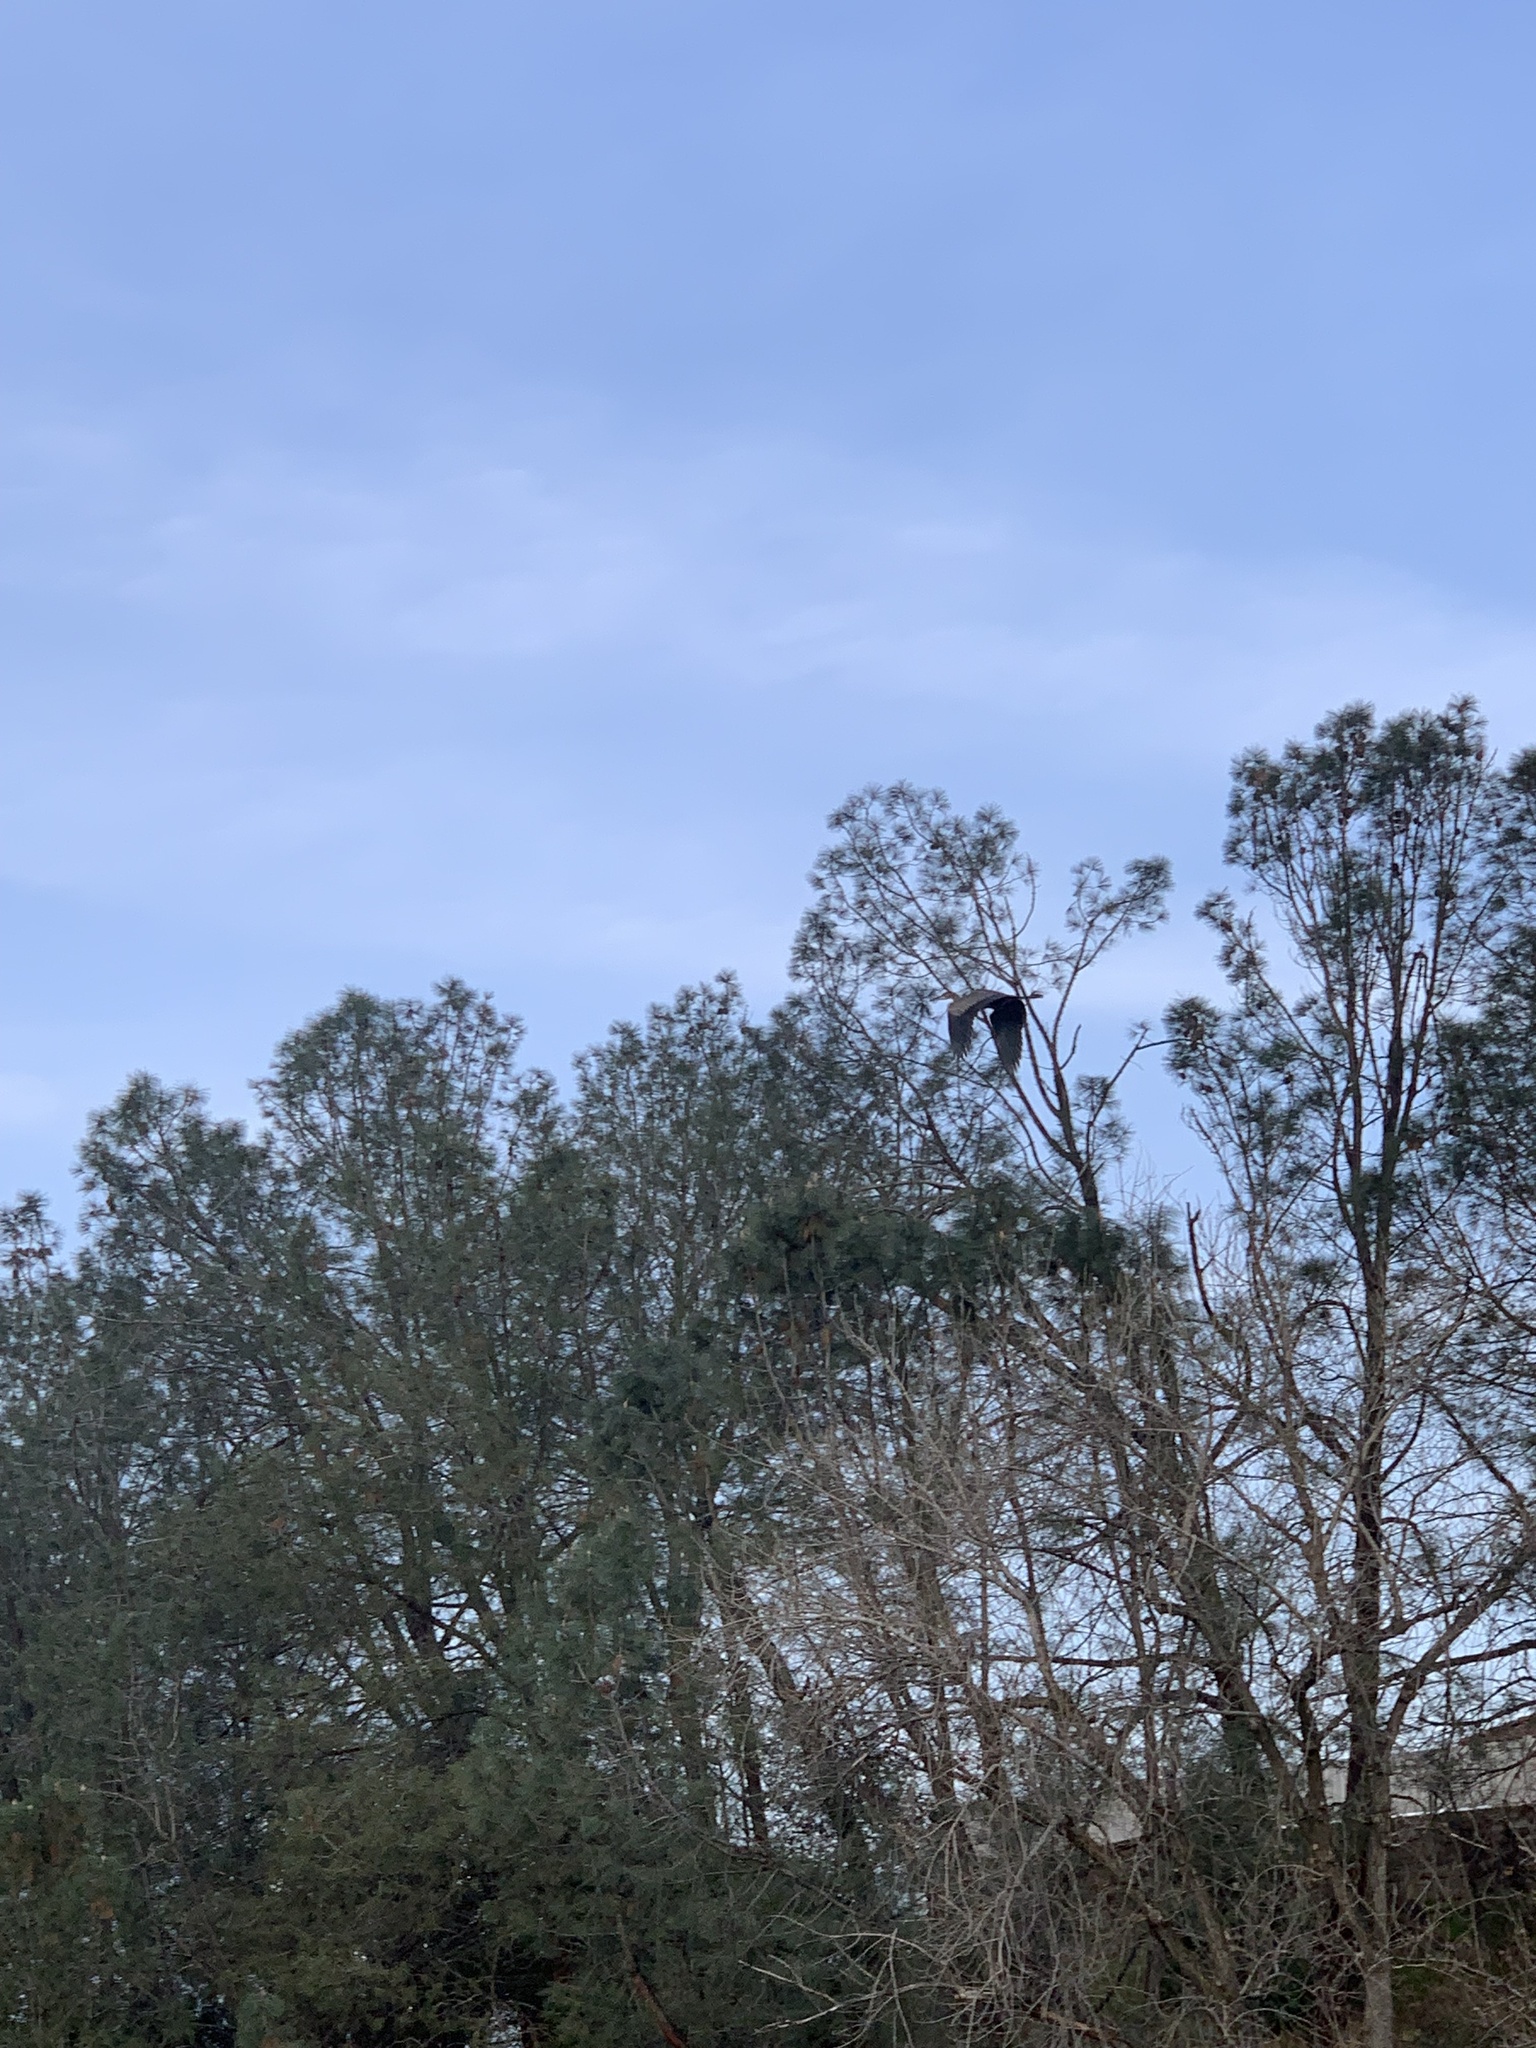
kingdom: Animalia
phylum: Chordata
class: Aves
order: Pelecaniformes
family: Ardeidae
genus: Ardea
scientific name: Ardea herodias
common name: Great blue heron
